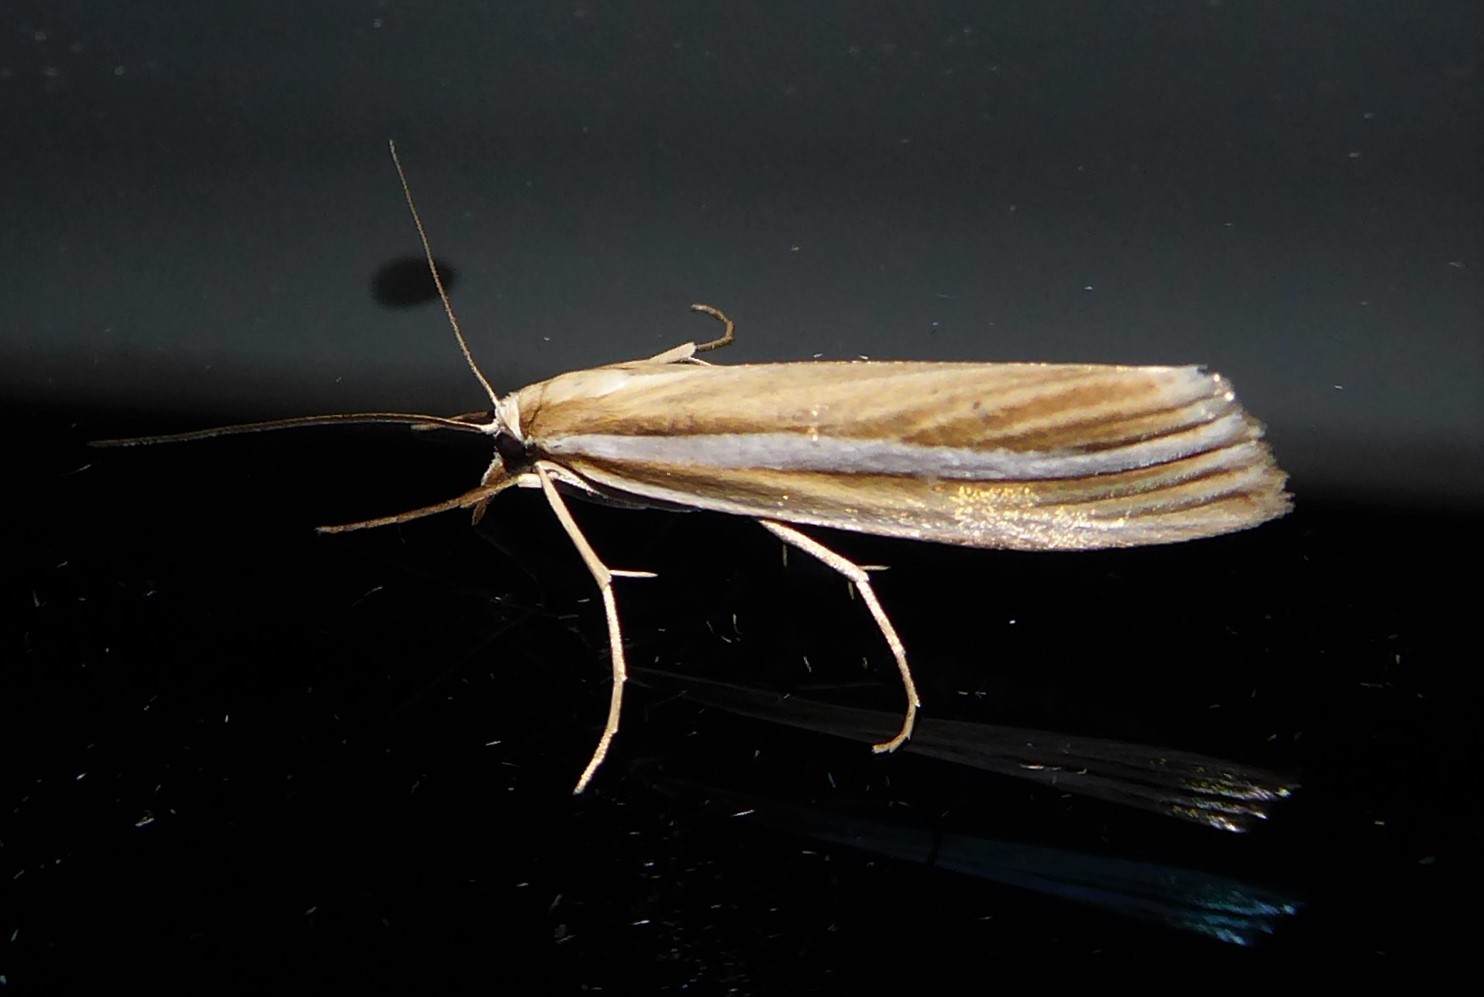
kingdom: Animalia
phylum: Arthropoda
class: Insecta
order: Lepidoptera
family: Crambidae
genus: Orocrambus
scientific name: Orocrambus ordishi
